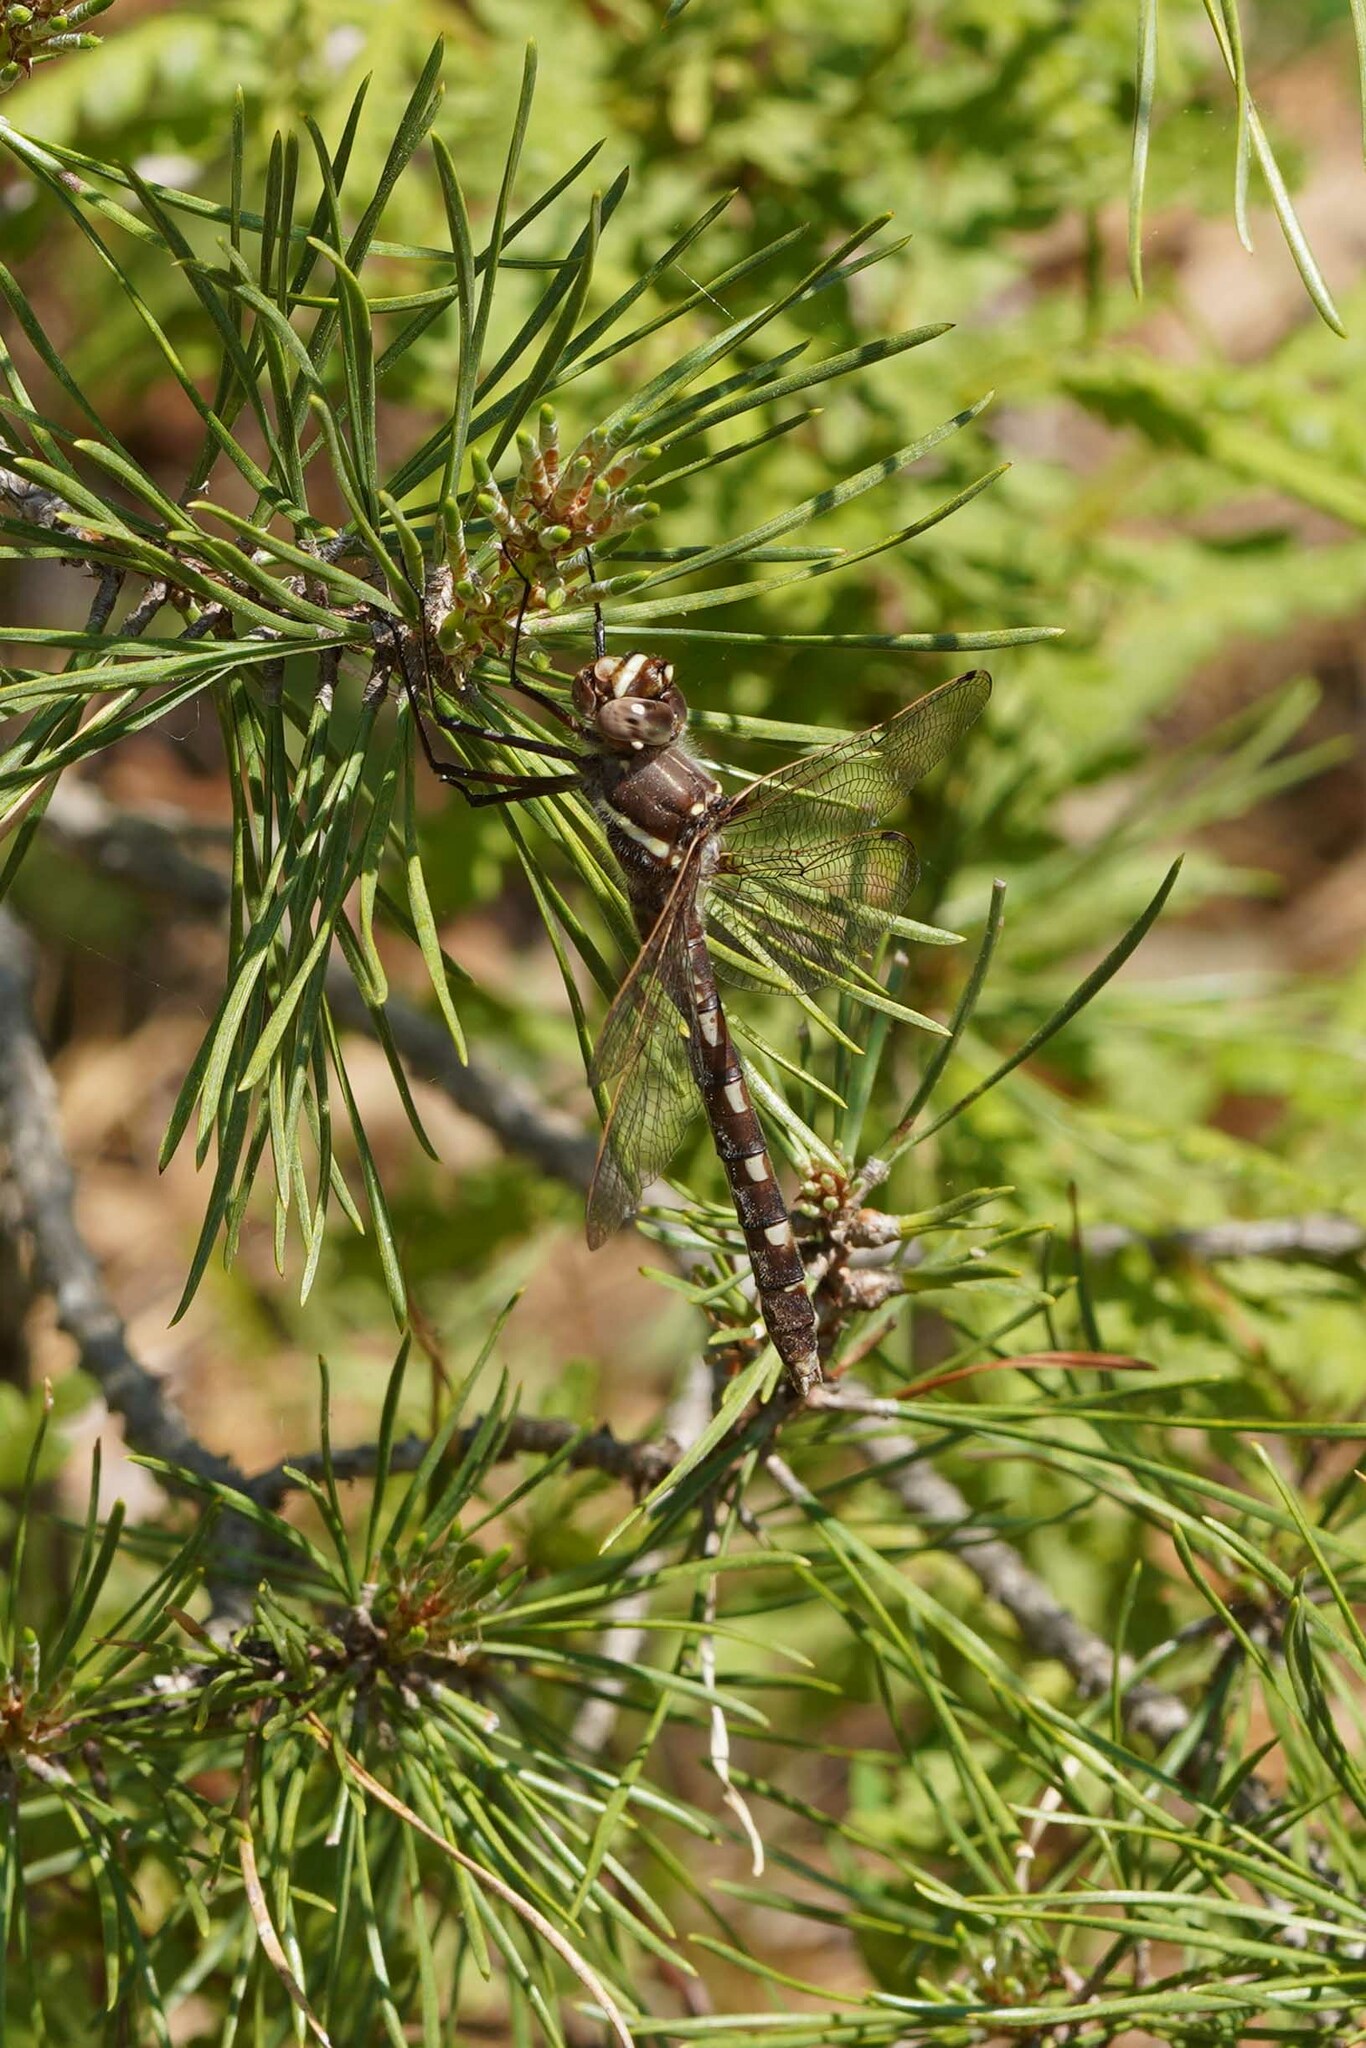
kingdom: Animalia
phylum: Arthropoda
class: Insecta
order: Odonata
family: Macromiidae
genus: Didymops
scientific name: Didymops transversa
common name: Stream cruiser
